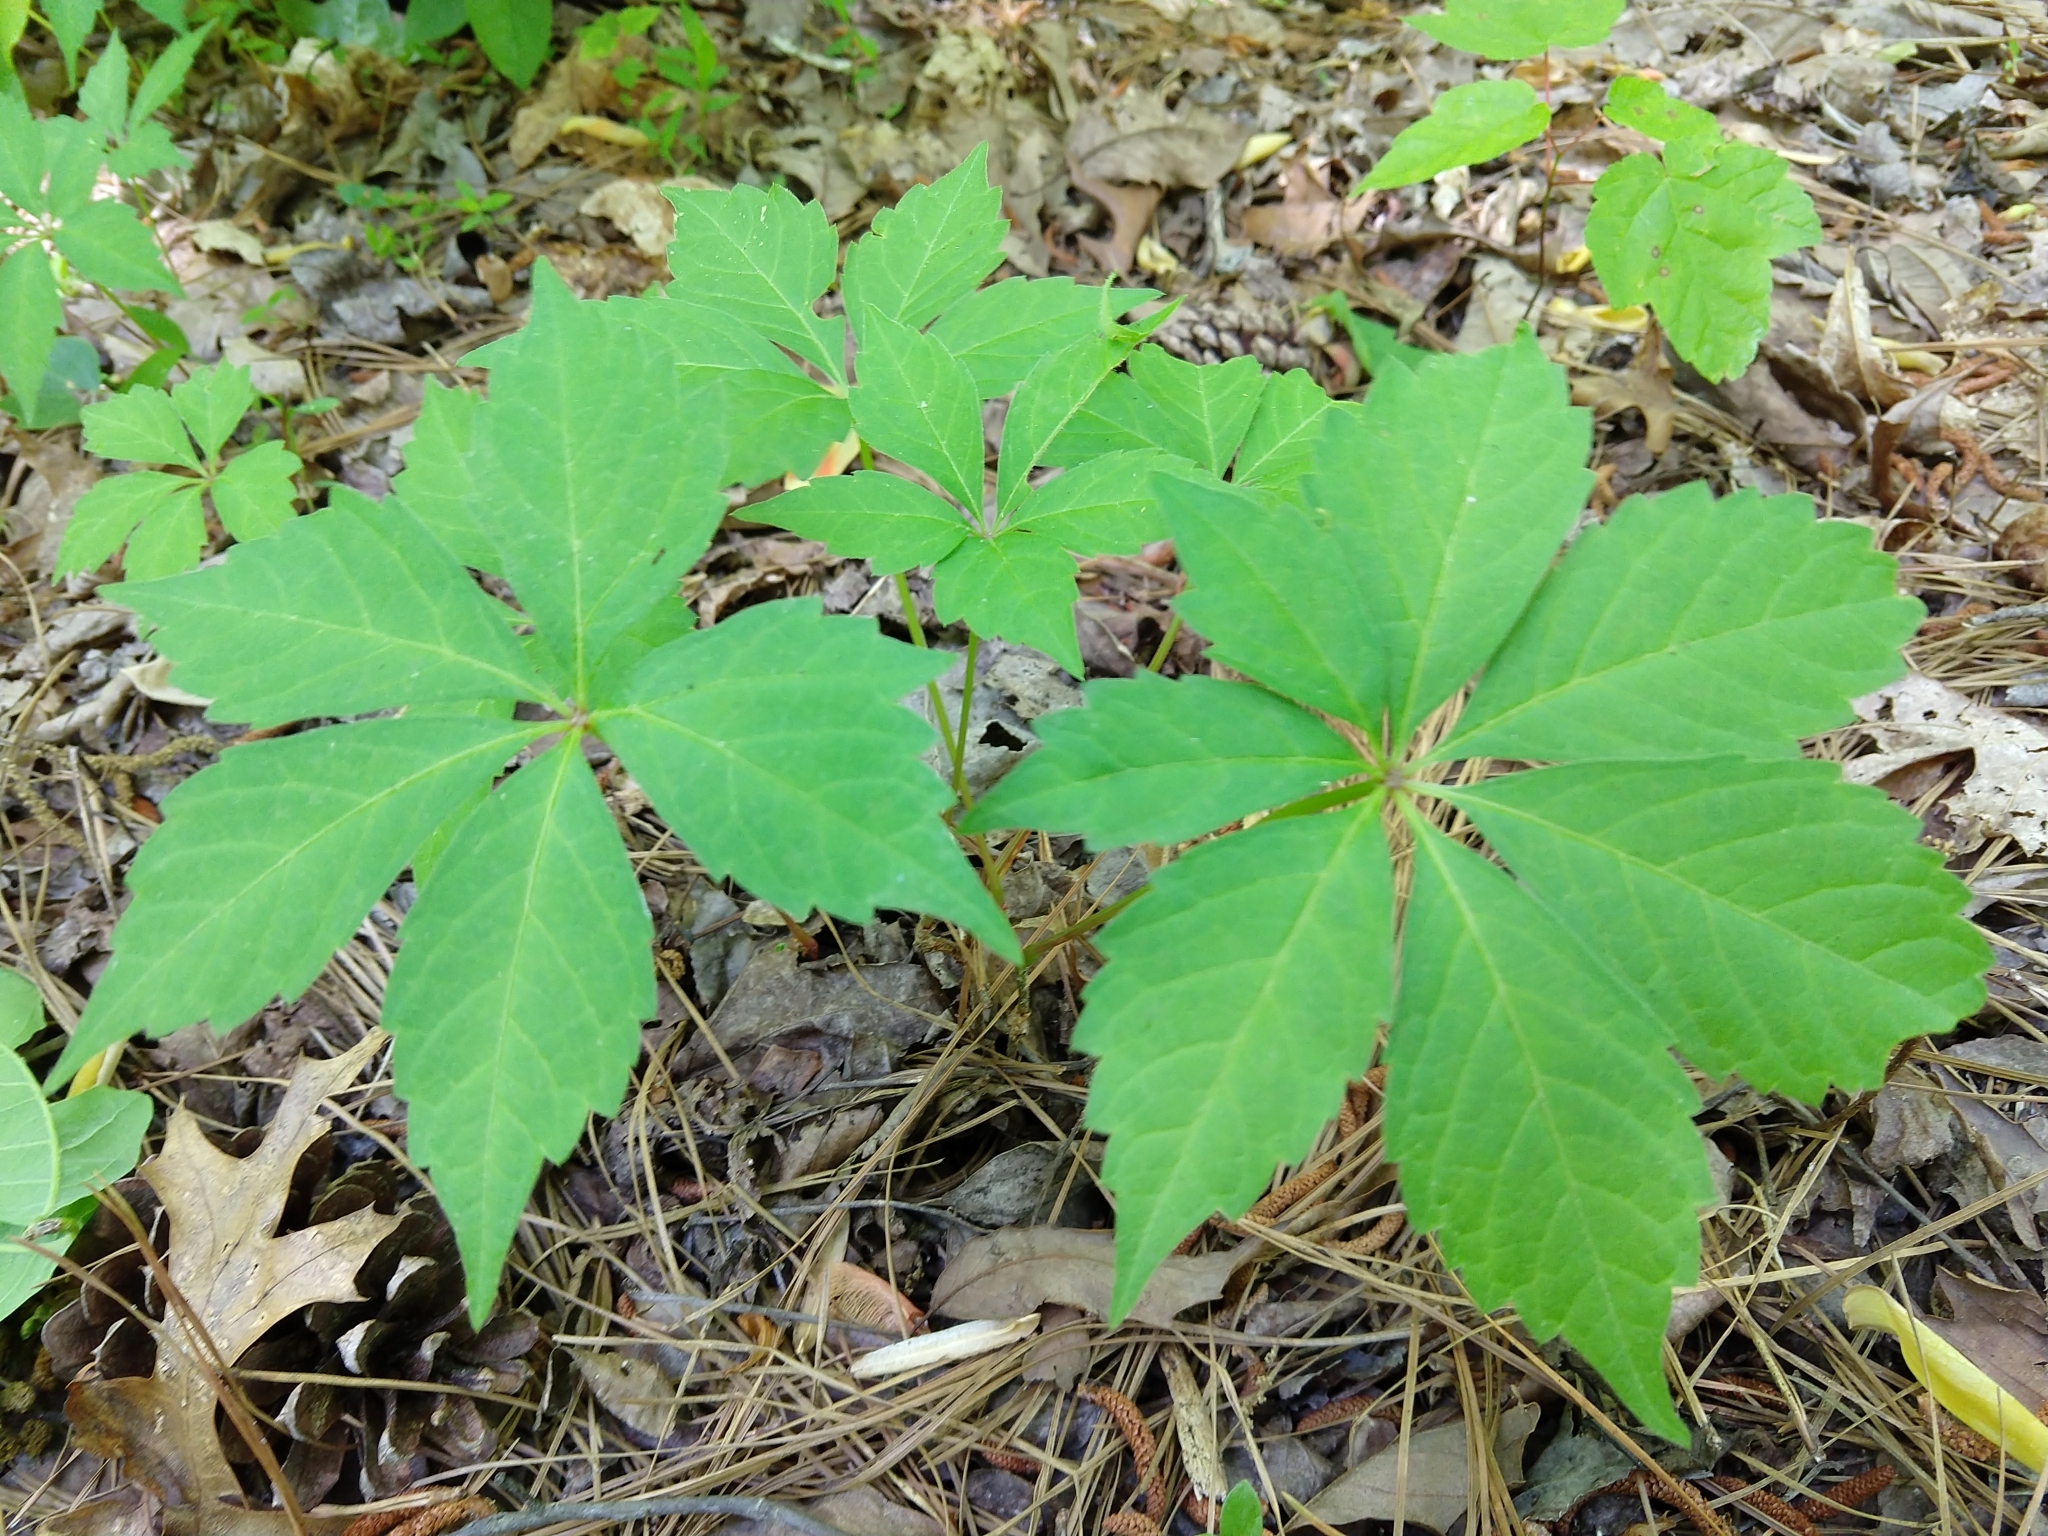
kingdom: Plantae
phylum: Tracheophyta
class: Magnoliopsida
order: Vitales
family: Vitaceae
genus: Parthenocissus
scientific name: Parthenocissus quinquefolia
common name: Virginia-creeper
